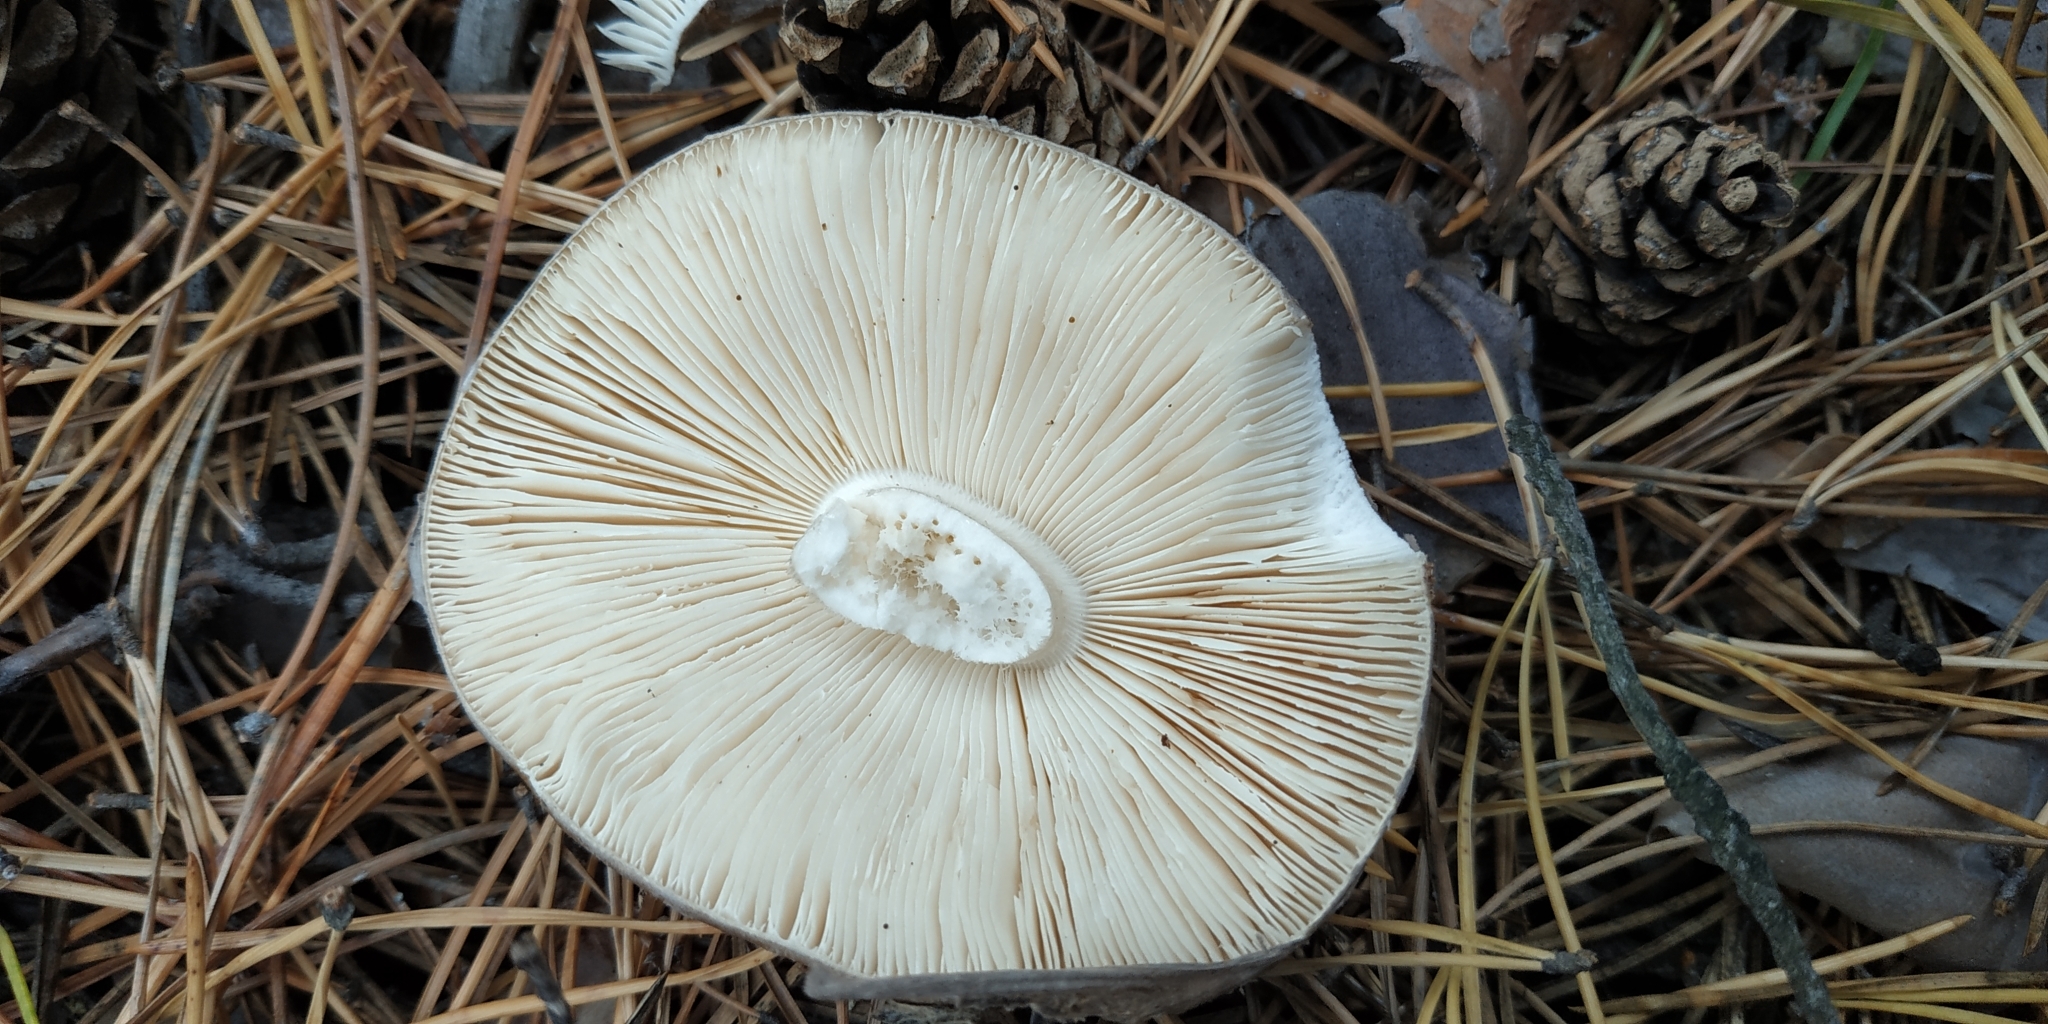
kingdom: Fungi
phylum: Basidiomycota
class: Agaricomycetes
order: Agaricales
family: Amanitaceae
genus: Amanita
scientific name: Amanita porphyria
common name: Grey veiled amanita
